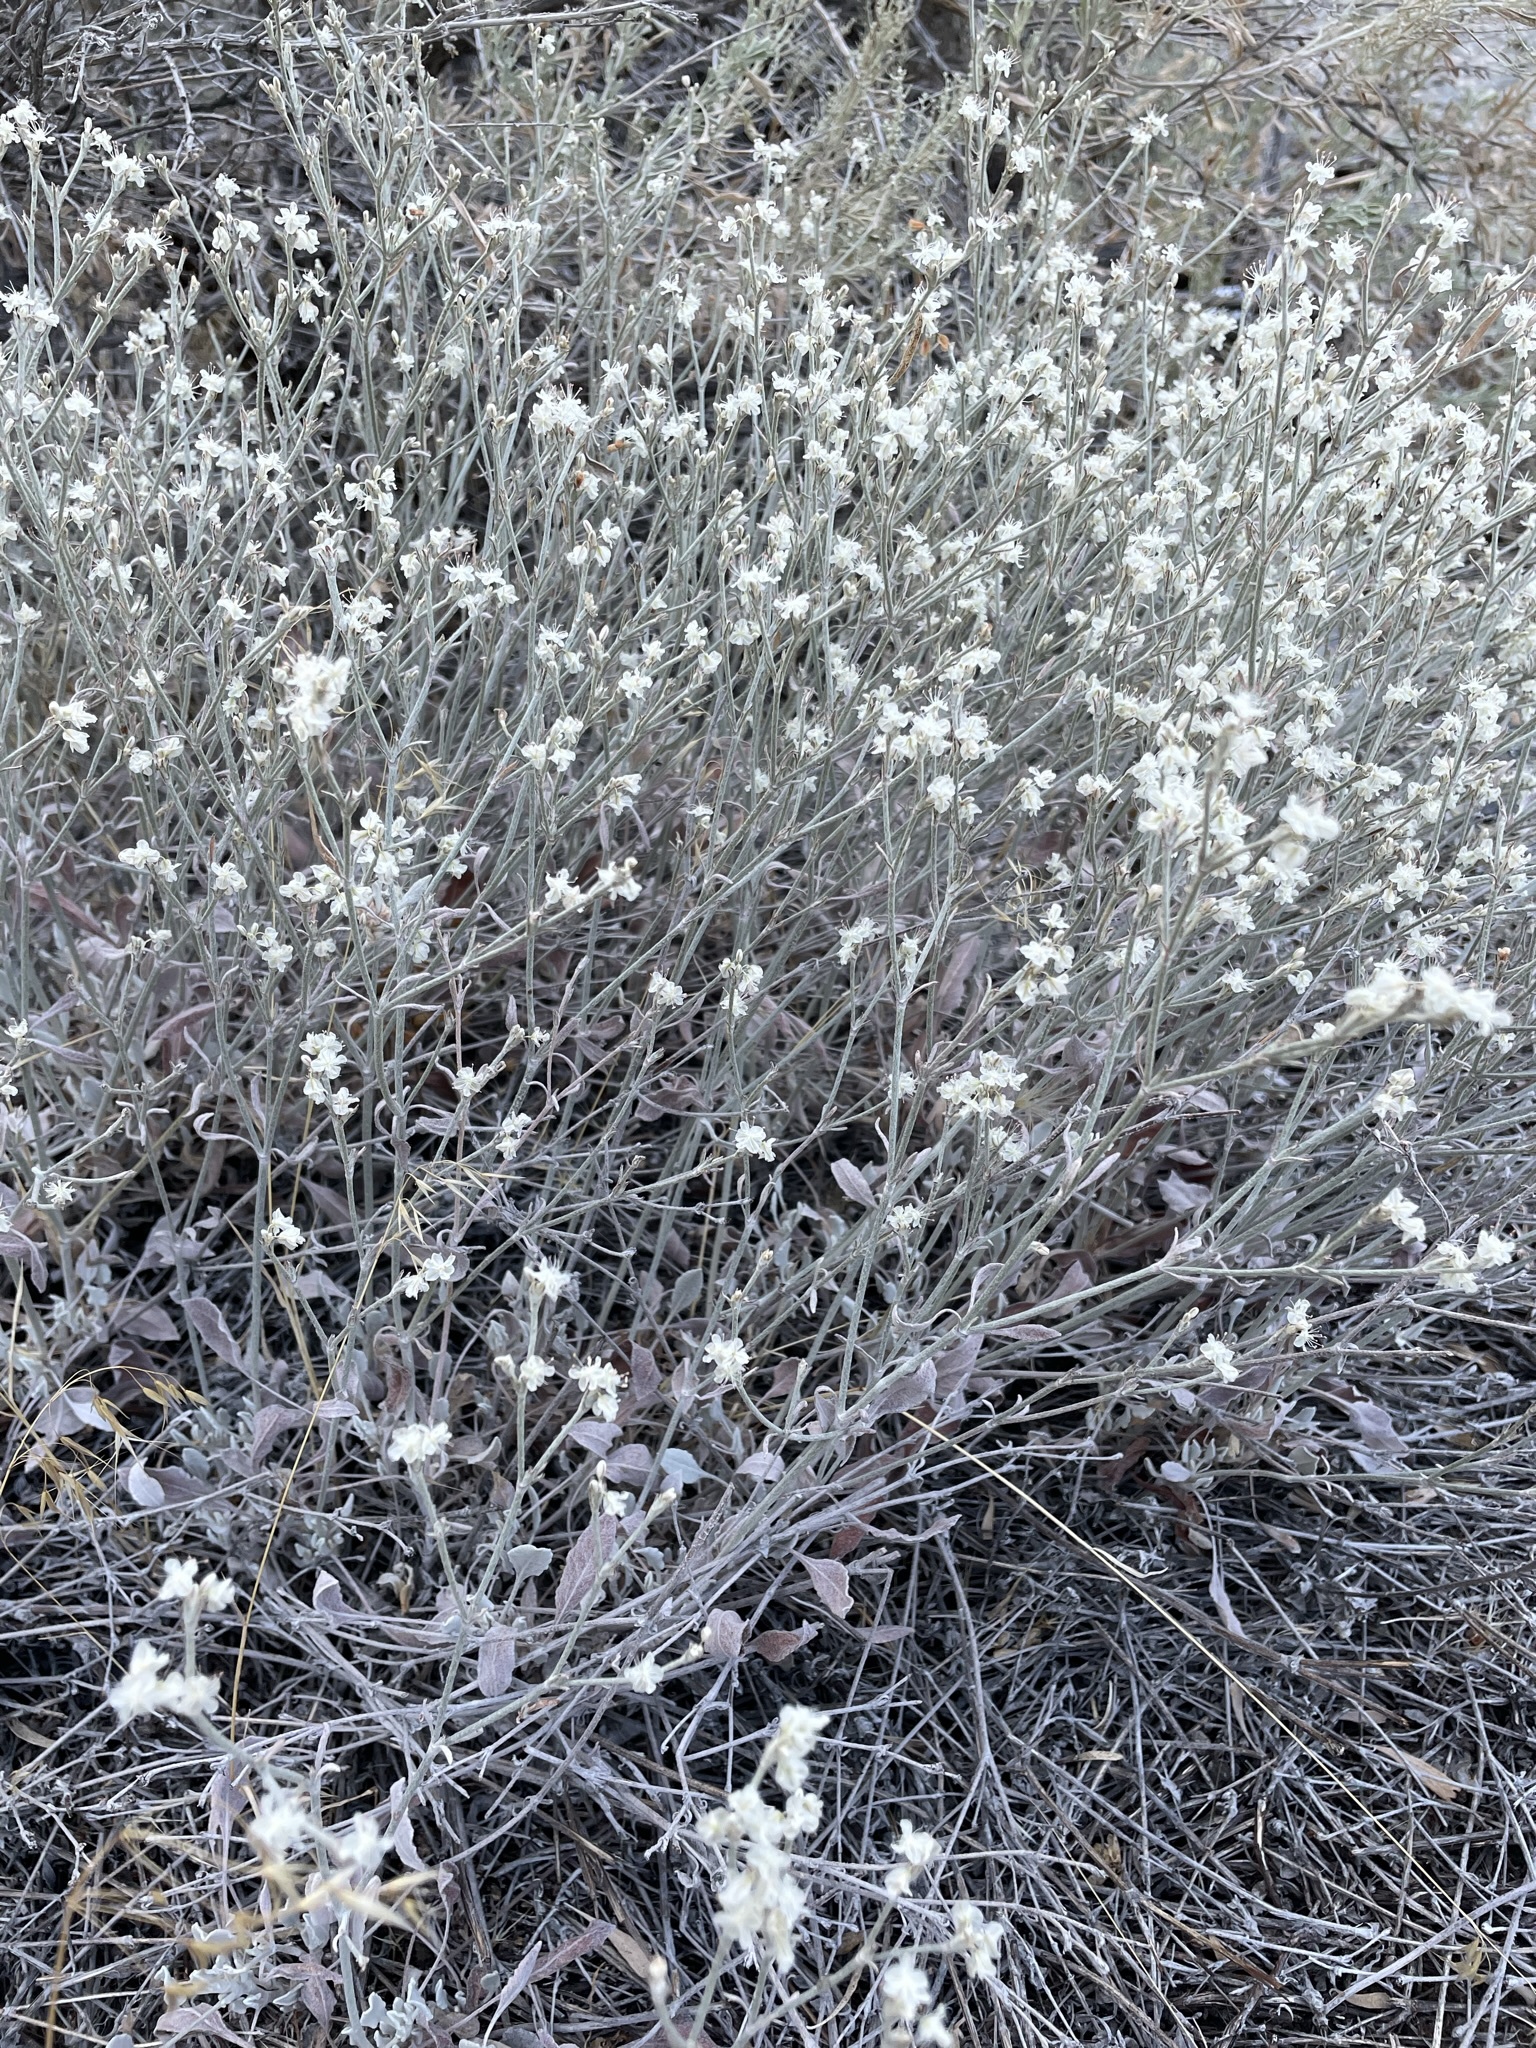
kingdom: Plantae
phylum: Tracheophyta
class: Magnoliopsida
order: Caryophyllales
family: Polygonaceae
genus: Eriogonum
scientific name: Eriogonum niveum
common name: Snow wild buckwheat
